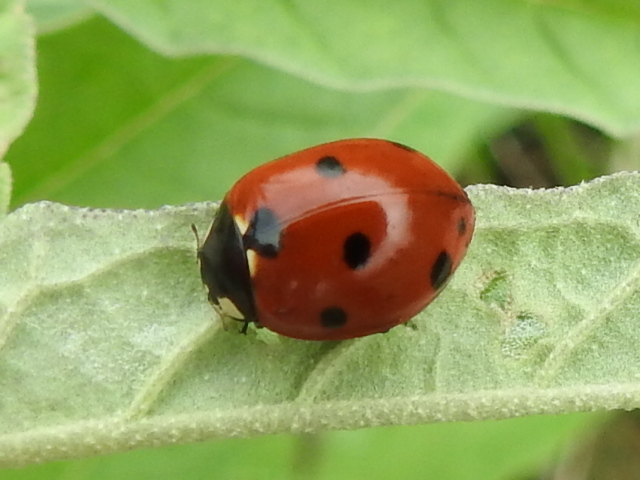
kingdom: Animalia
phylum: Arthropoda
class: Insecta
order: Coleoptera
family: Coccinellidae
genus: Coccinella
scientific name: Coccinella septempunctata
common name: Sevenspotted lady beetle
